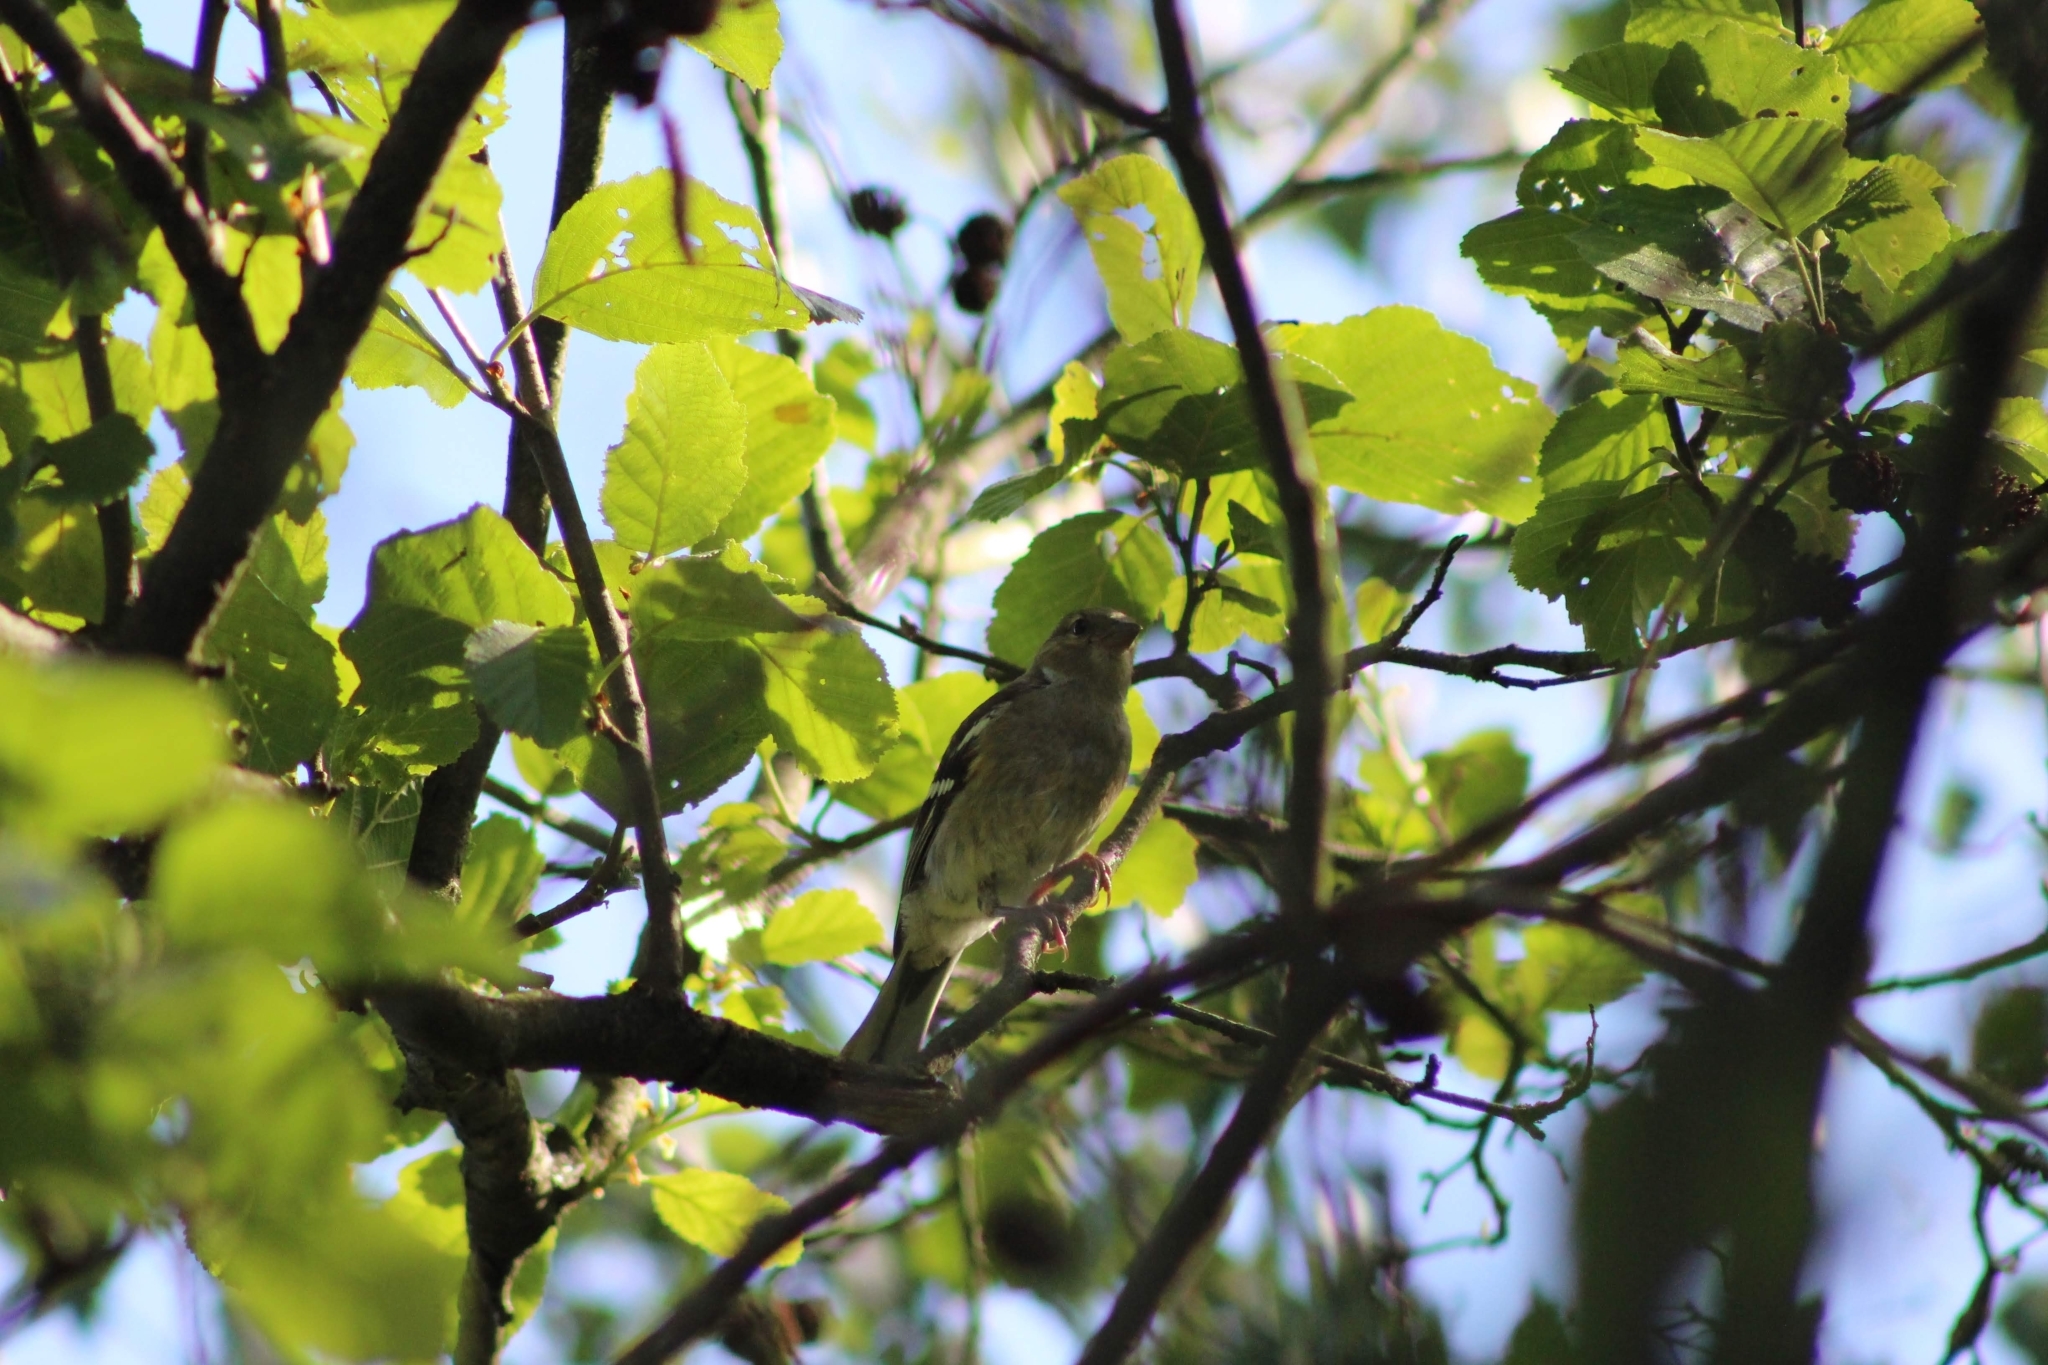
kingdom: Animalia
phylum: Chordata
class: Aves
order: Passeriformes
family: Fringillidae
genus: Fringilla
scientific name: Fringilla coelebs
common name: Common chaffinch
